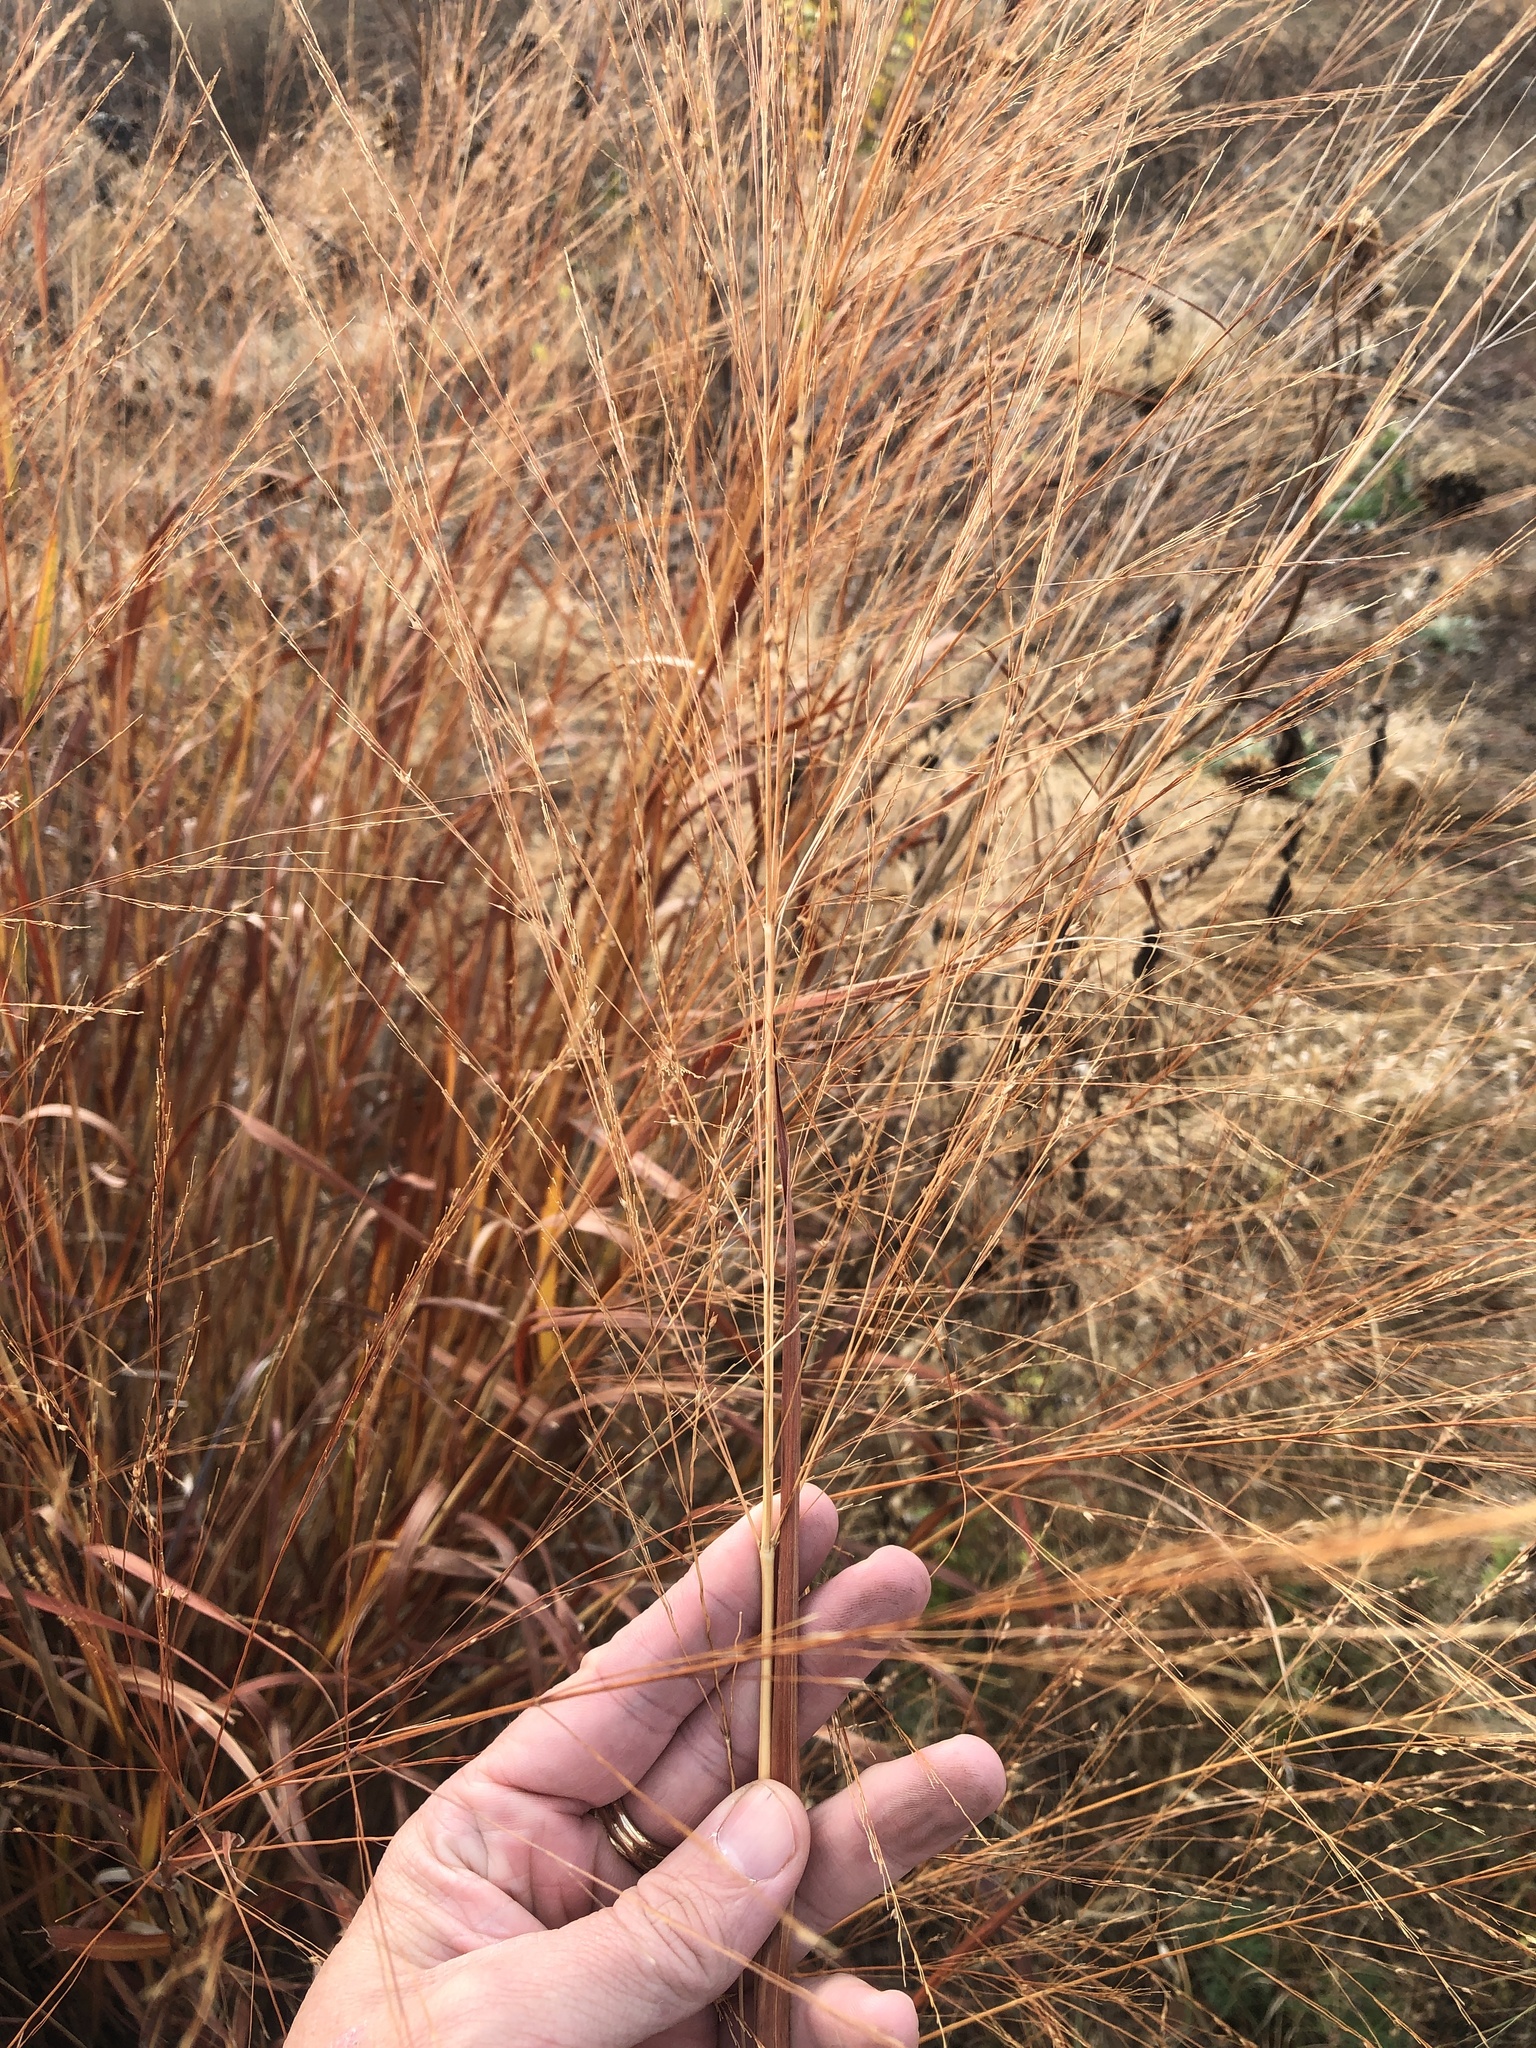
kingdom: Plantae
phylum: Tracheophyta
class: Liliopsida
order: Poales
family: Poaceae
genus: Panicum
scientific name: Panicum virgatum
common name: Switchgrass
